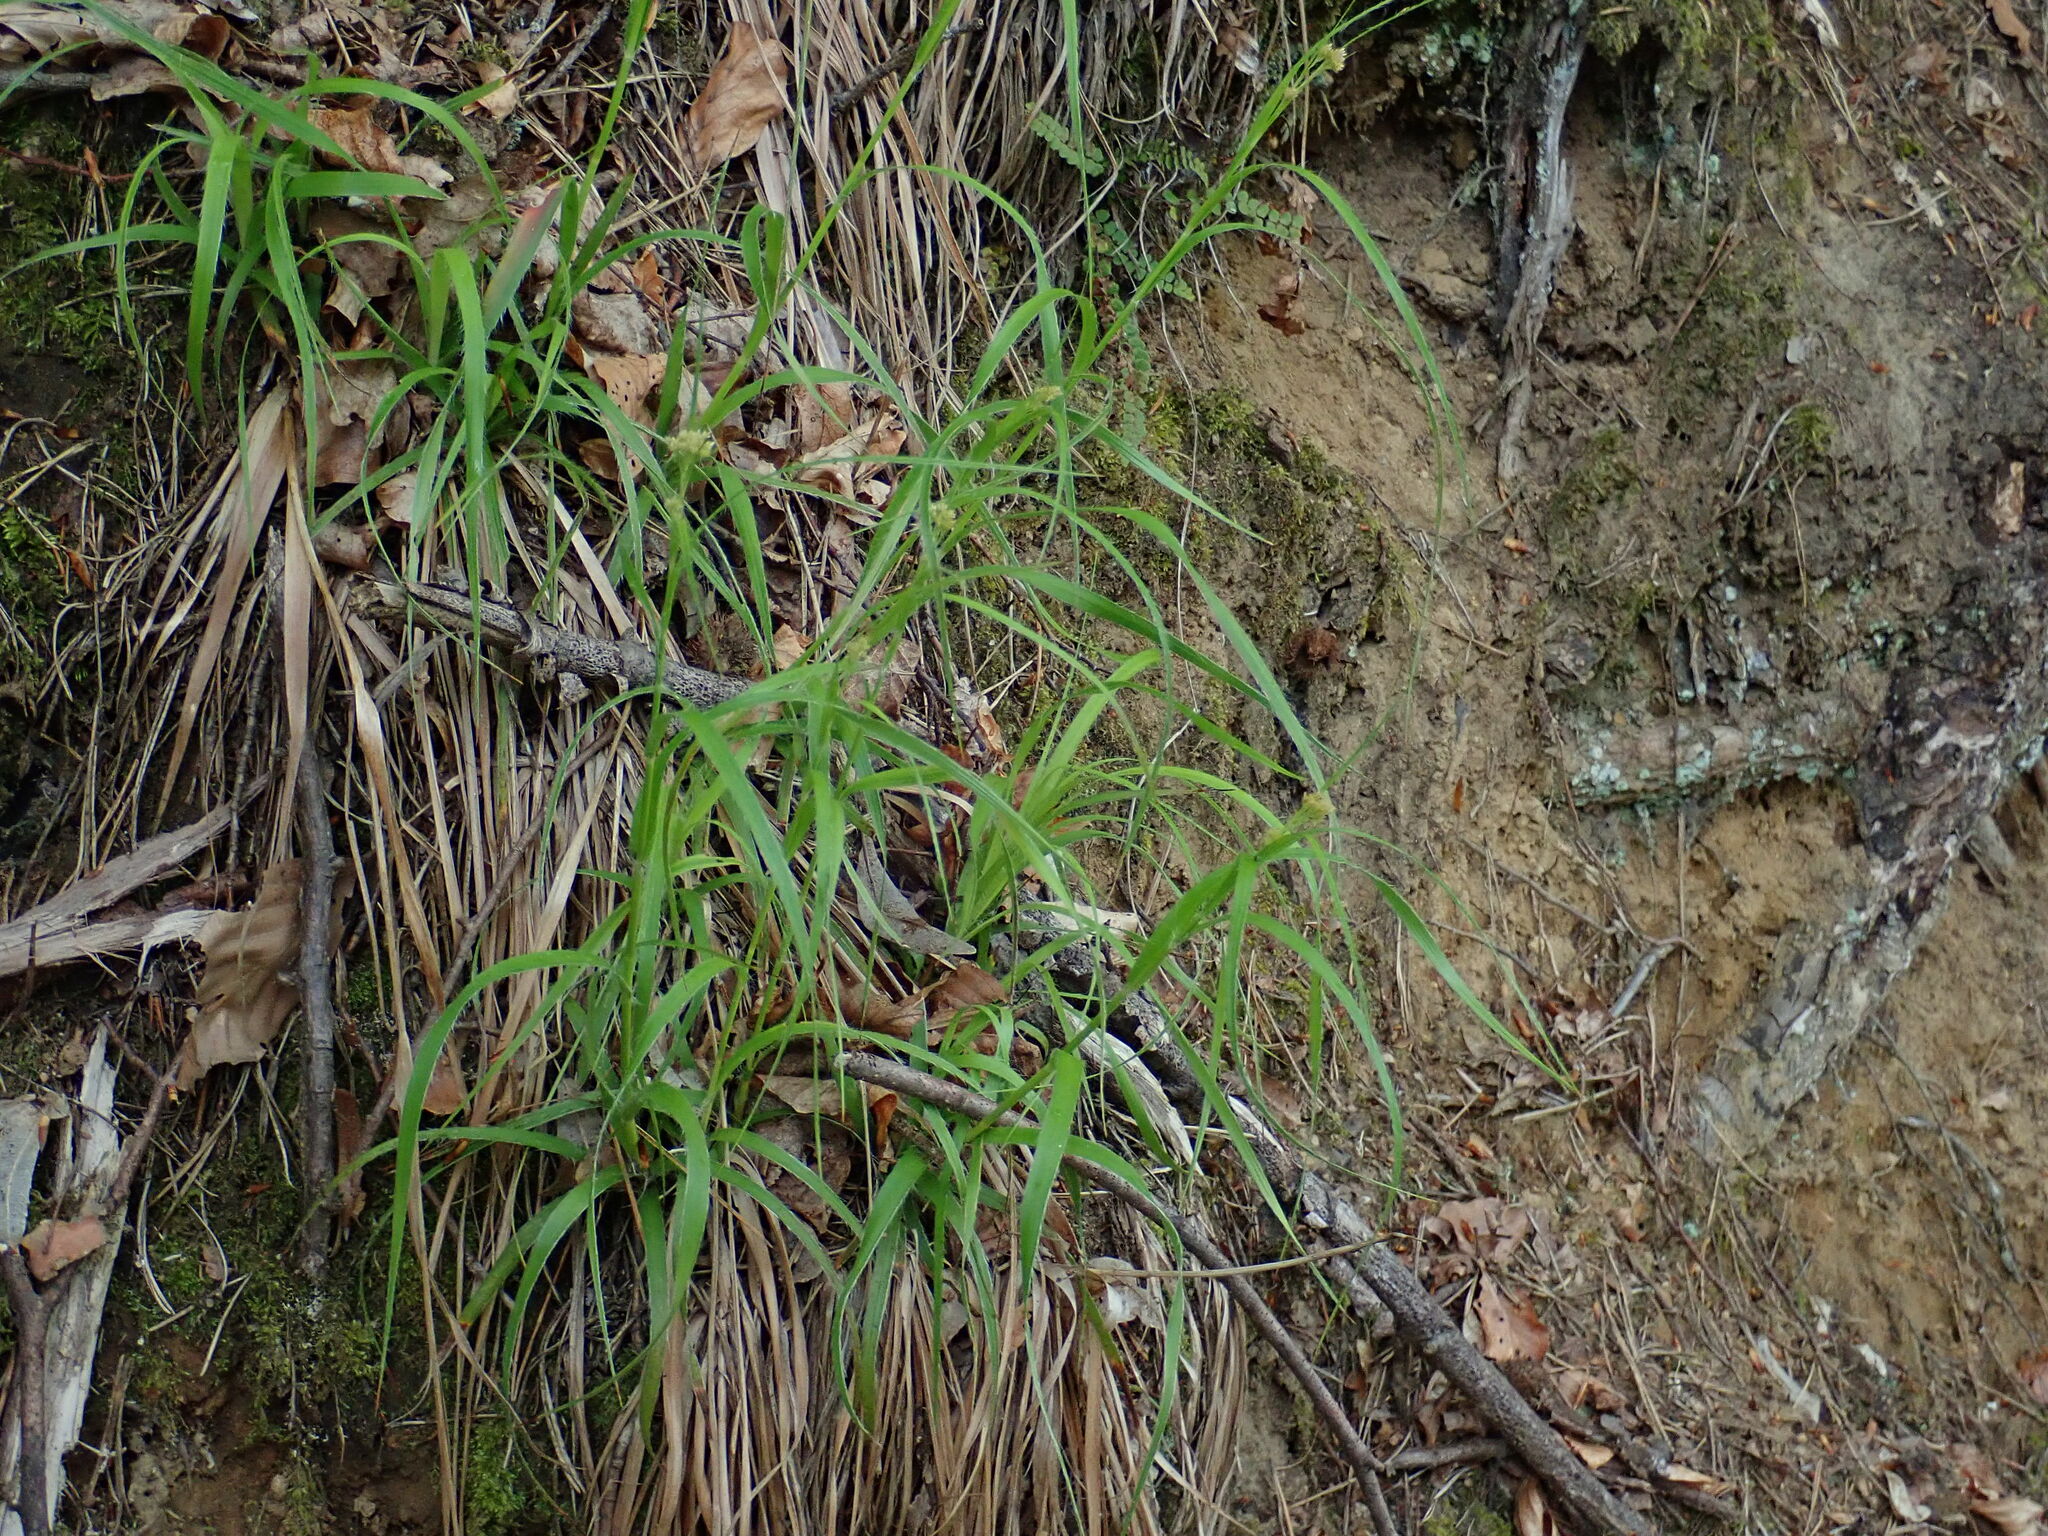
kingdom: Plantae
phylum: Tracheophyta
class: Liliopsida
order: Poales
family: Juncaceae
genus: Luzula
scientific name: Luzula luzuloides
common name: White wood-rush
